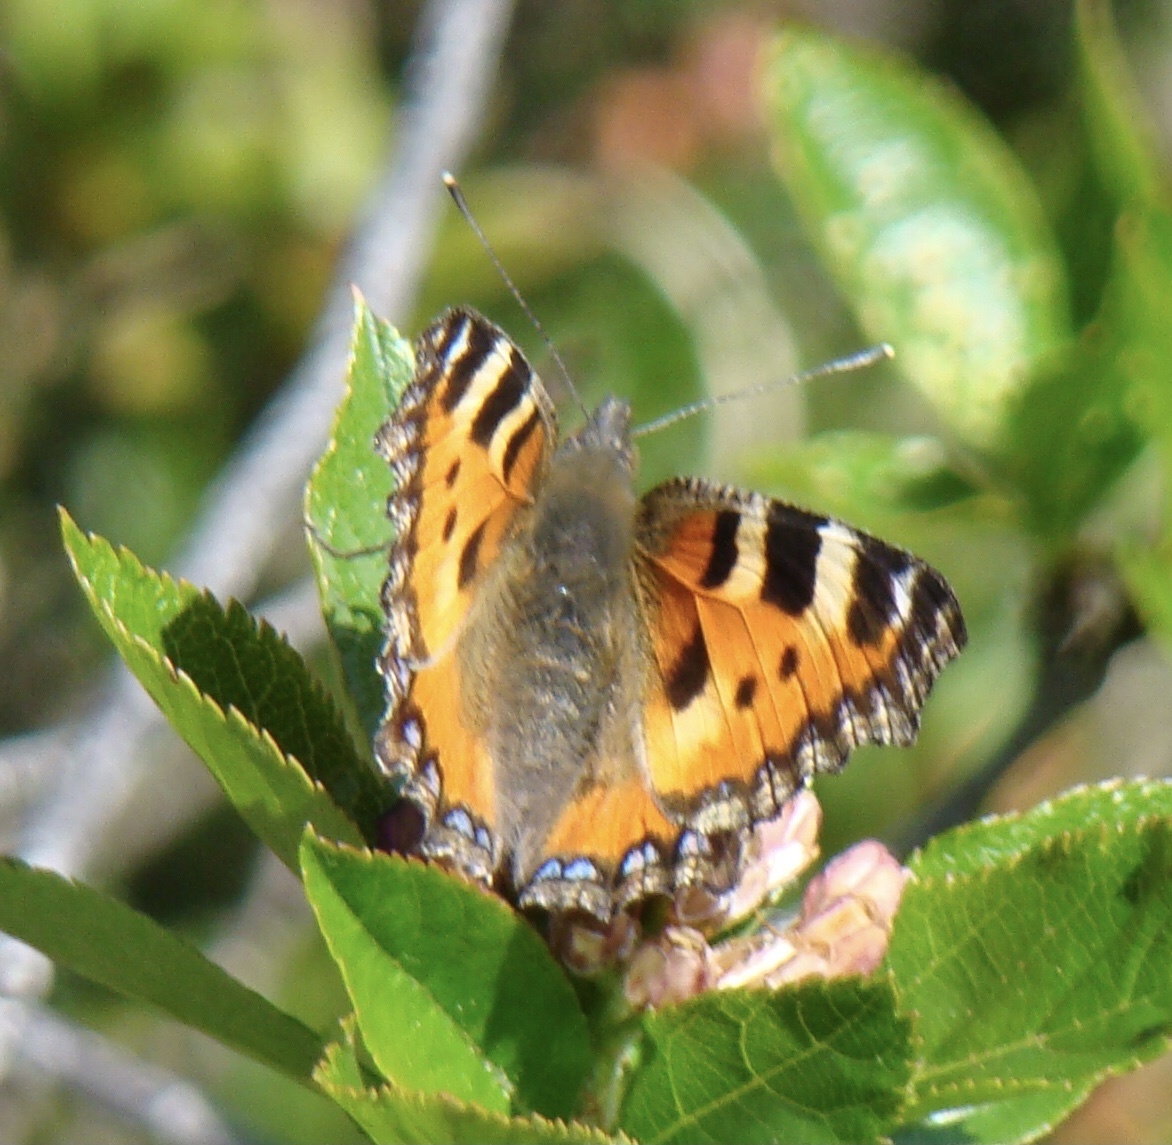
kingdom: Animalia
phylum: Arthropoda
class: Insecta
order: Lepidoptera
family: Nymphalidae
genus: Aglais
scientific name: Aglais urticae
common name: Small tortoiseshell
